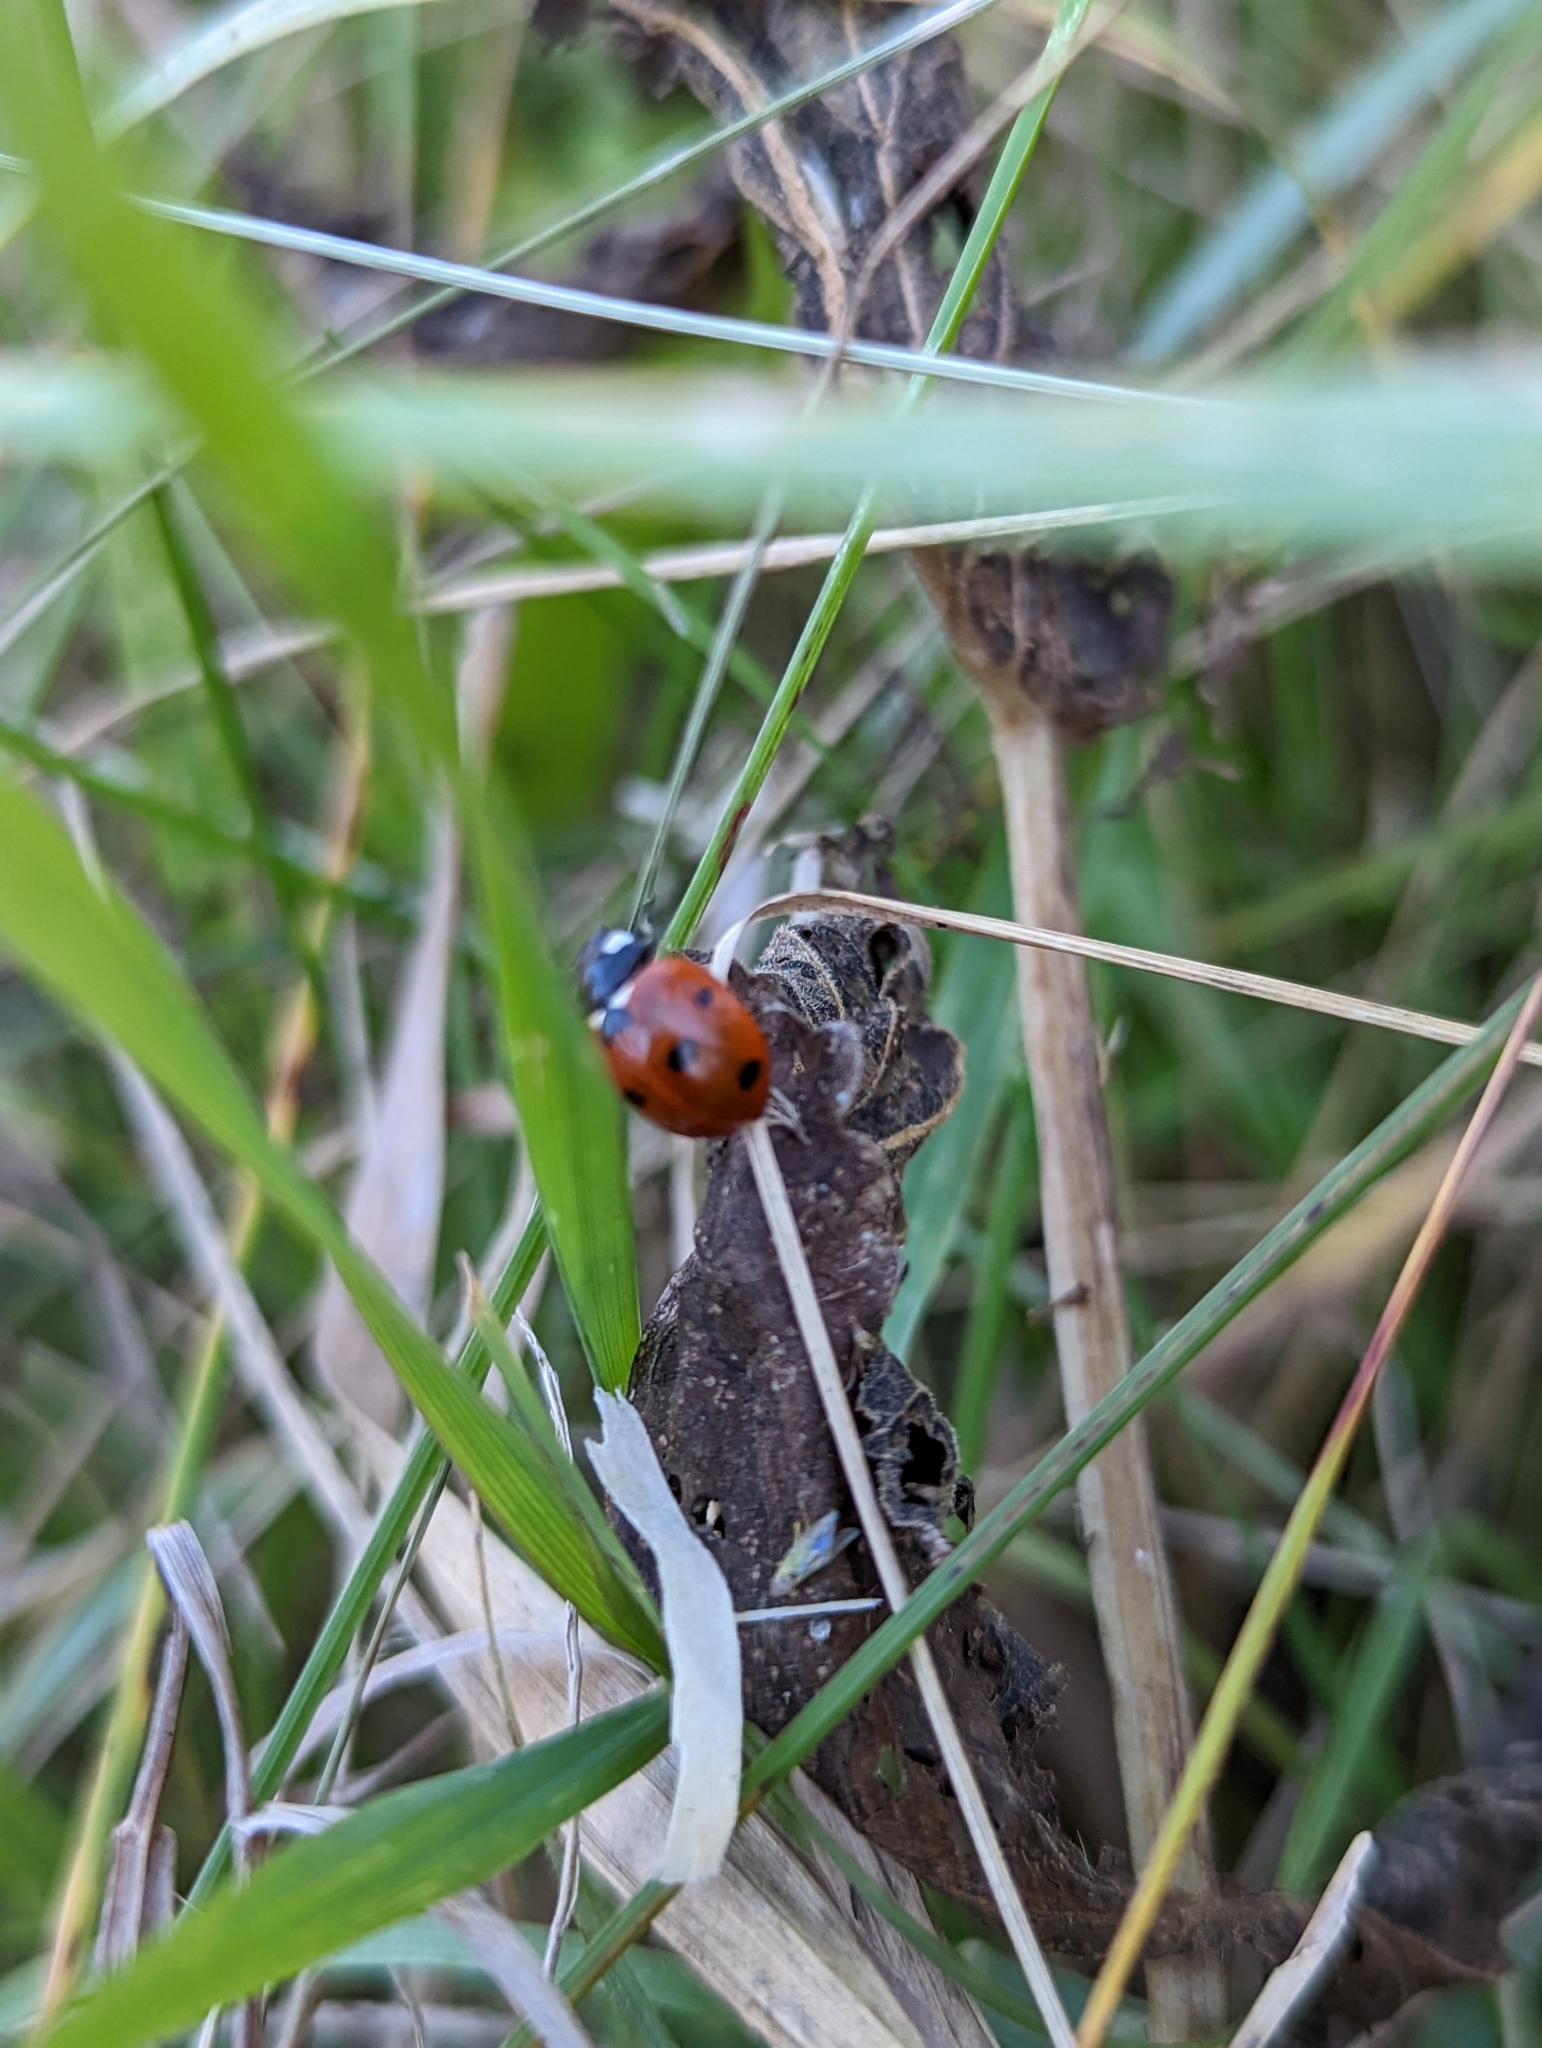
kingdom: Animalia
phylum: Arthropoda
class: Insecta
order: Coleoptera
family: Coccinellidae
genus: Coccinella
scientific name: Coccinella septempunctata
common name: Sevenspotted lady beetle
